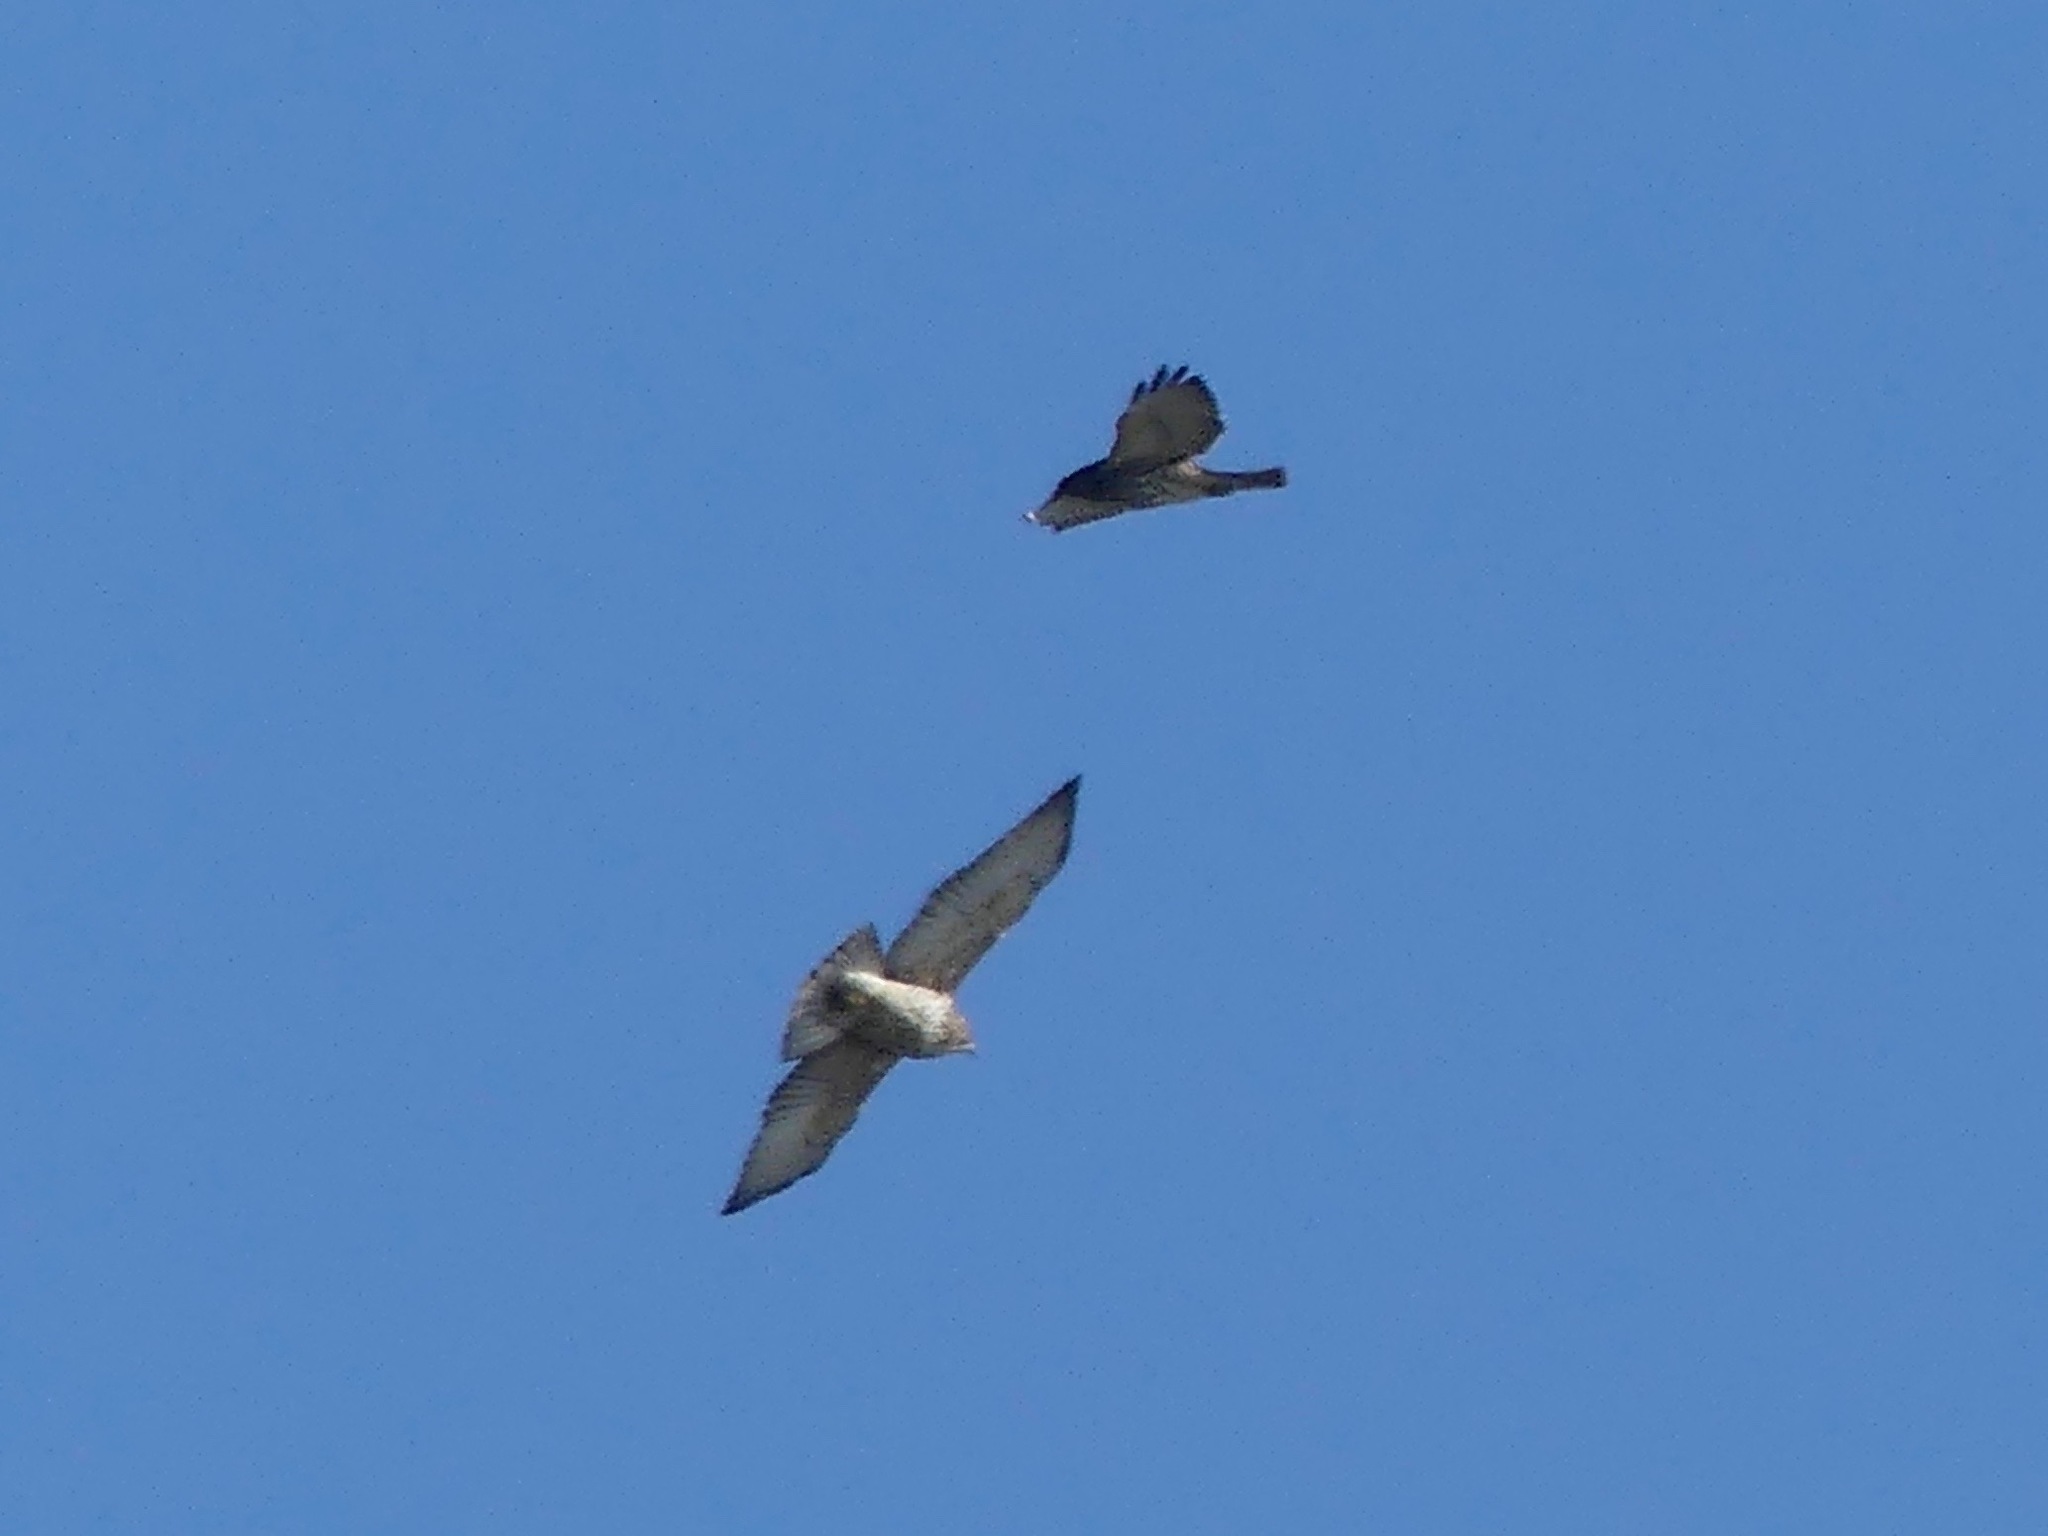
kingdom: Animalia
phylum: Chordata
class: Aves
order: Accipitriformes
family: Accipitridae
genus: Buteo
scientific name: Buteo platypterus
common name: Broad-winged hawk
